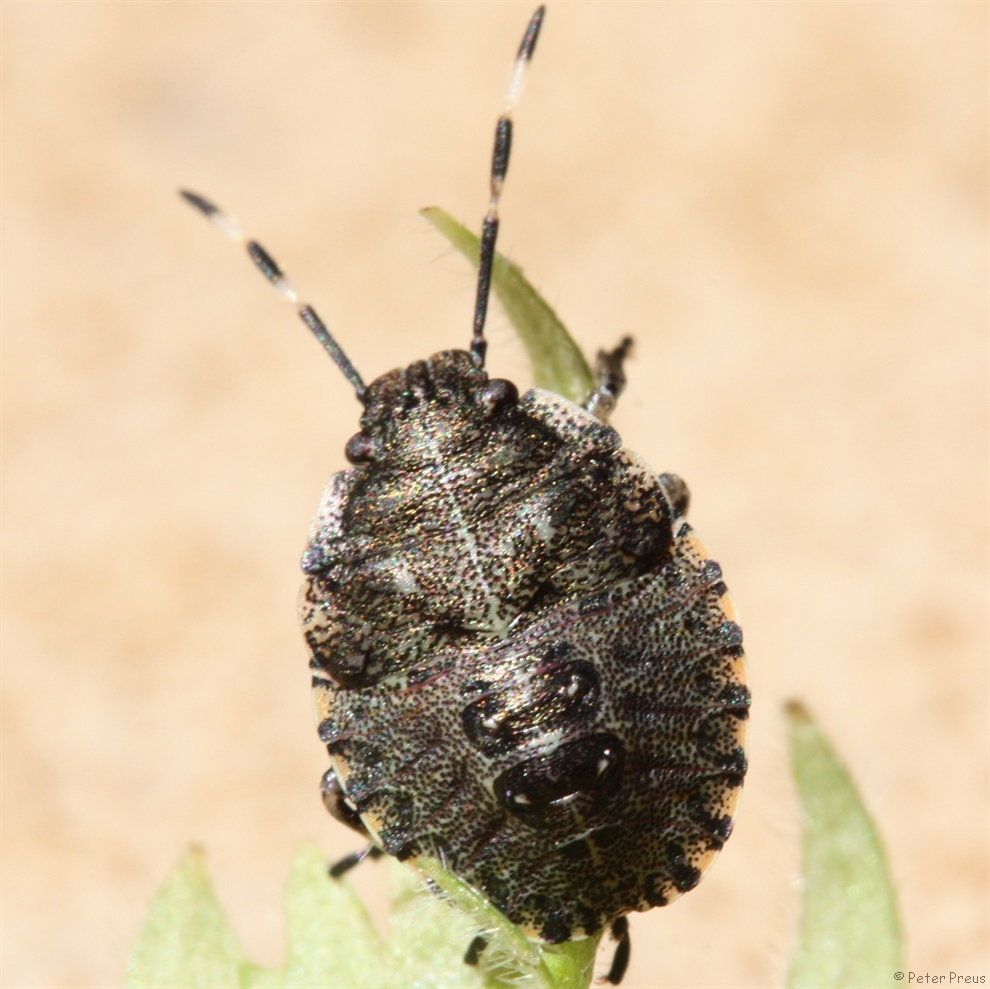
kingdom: Animalia
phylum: Arthropoda
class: Insecta
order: Hemiptera
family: Pentatomidae
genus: Rhaphigaster
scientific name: Rhaphigaster nebulosa
